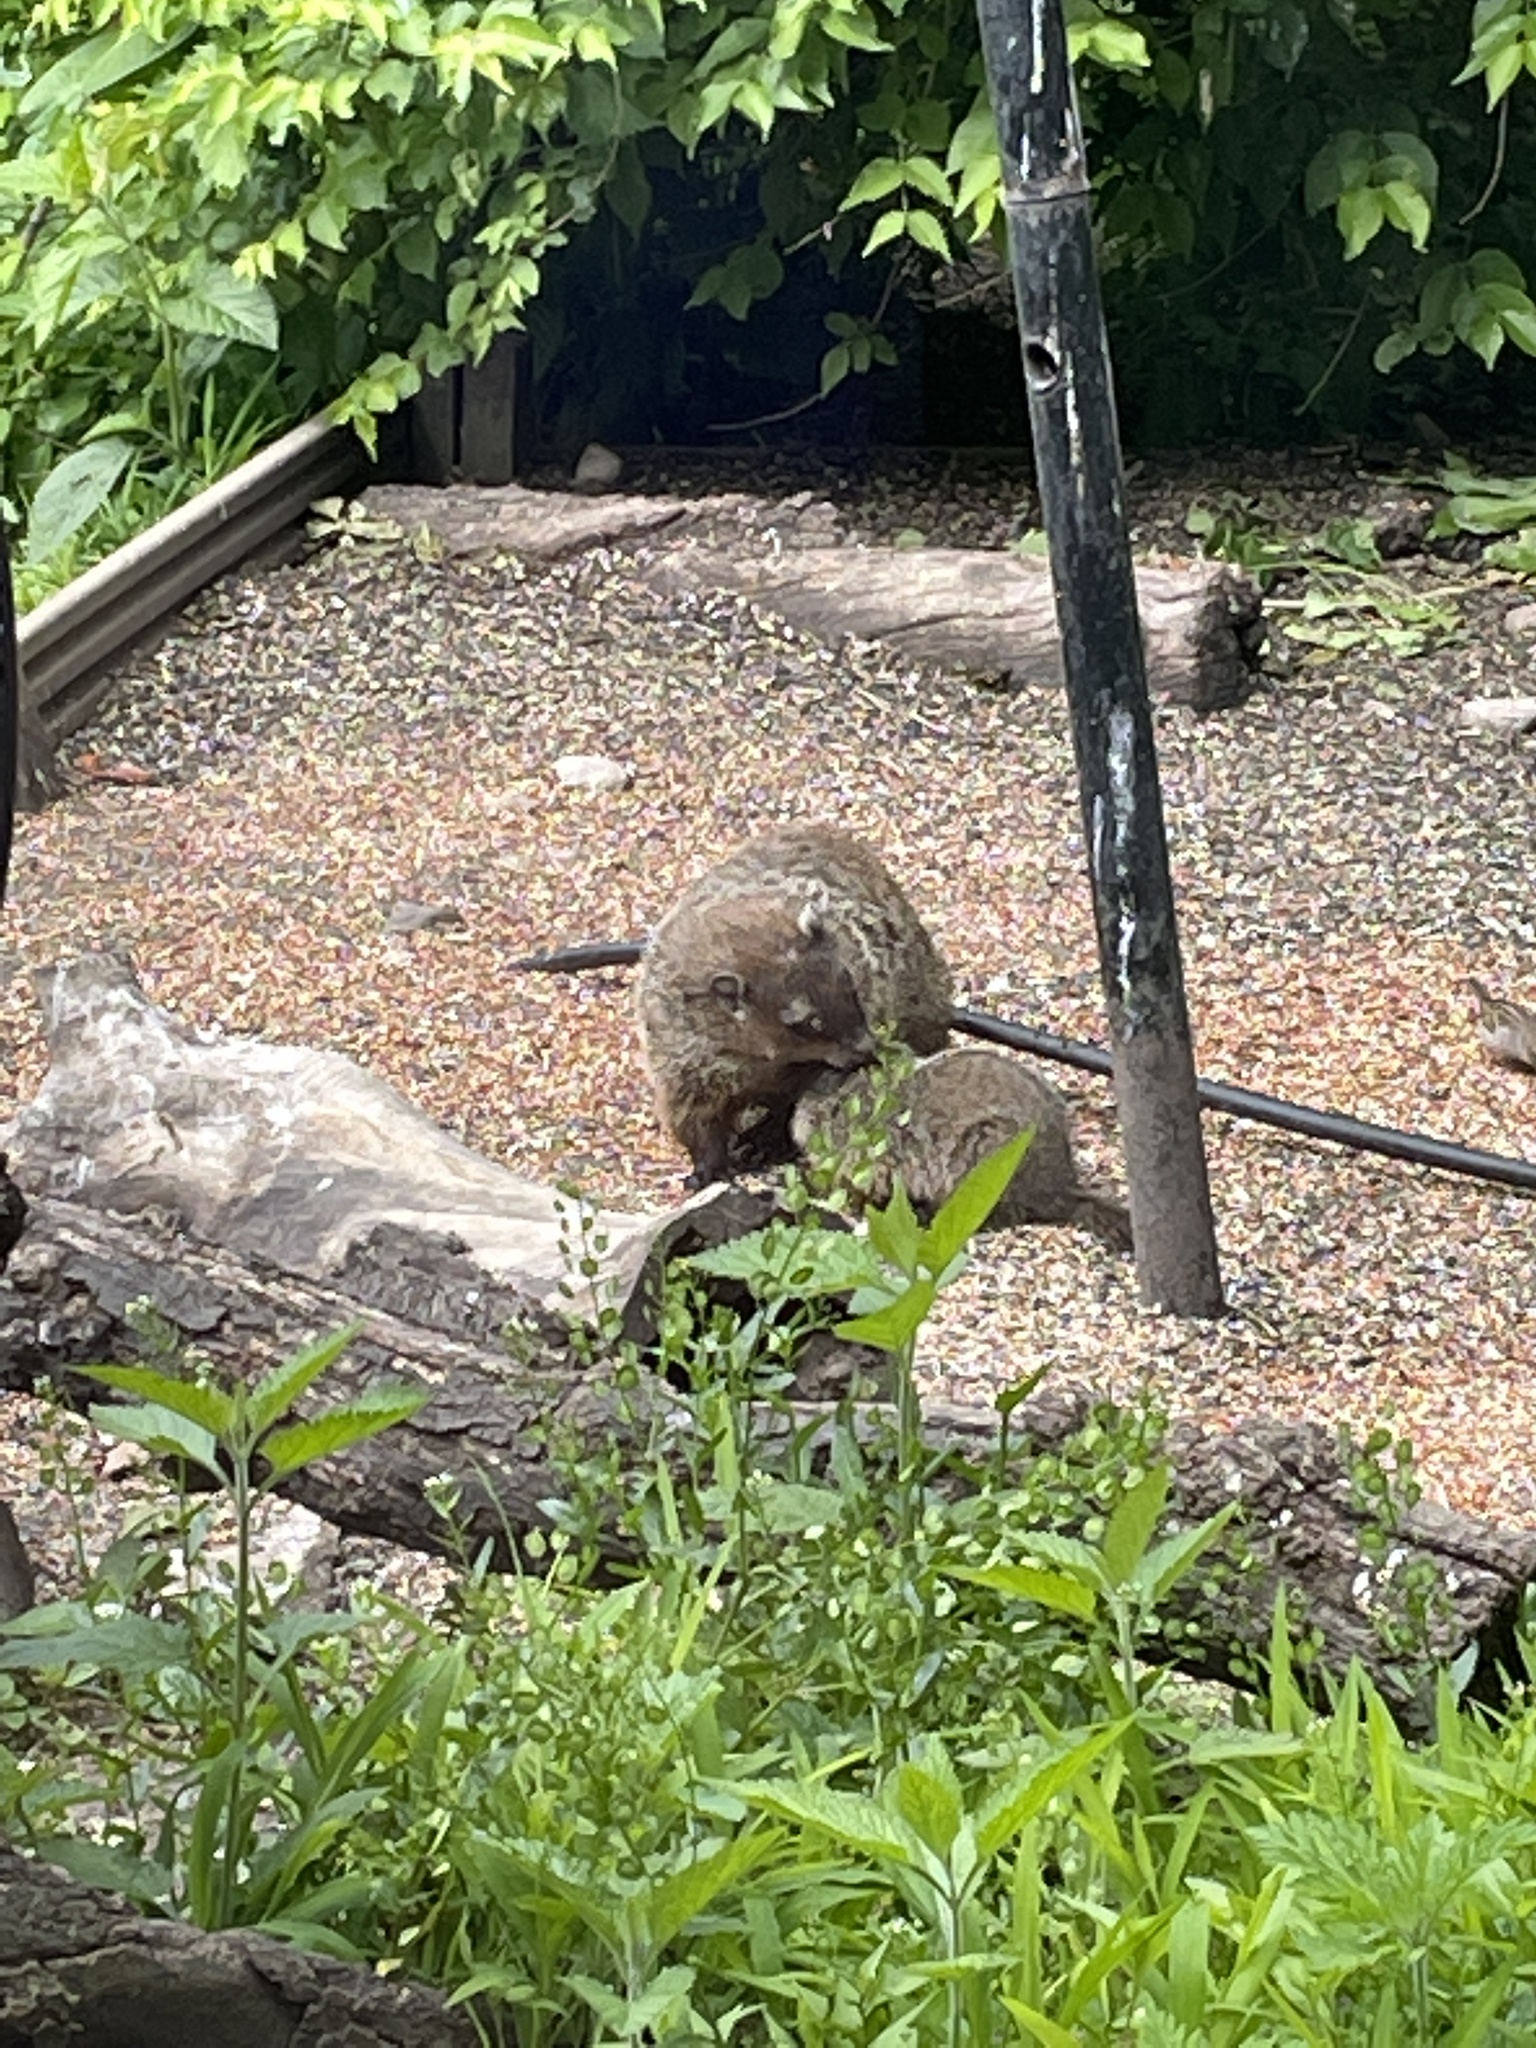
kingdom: Animalia
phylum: Chordata
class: Mammalia
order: Rodentia
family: Sciuridae
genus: Marmota
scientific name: Marmota monax
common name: Groundhog
